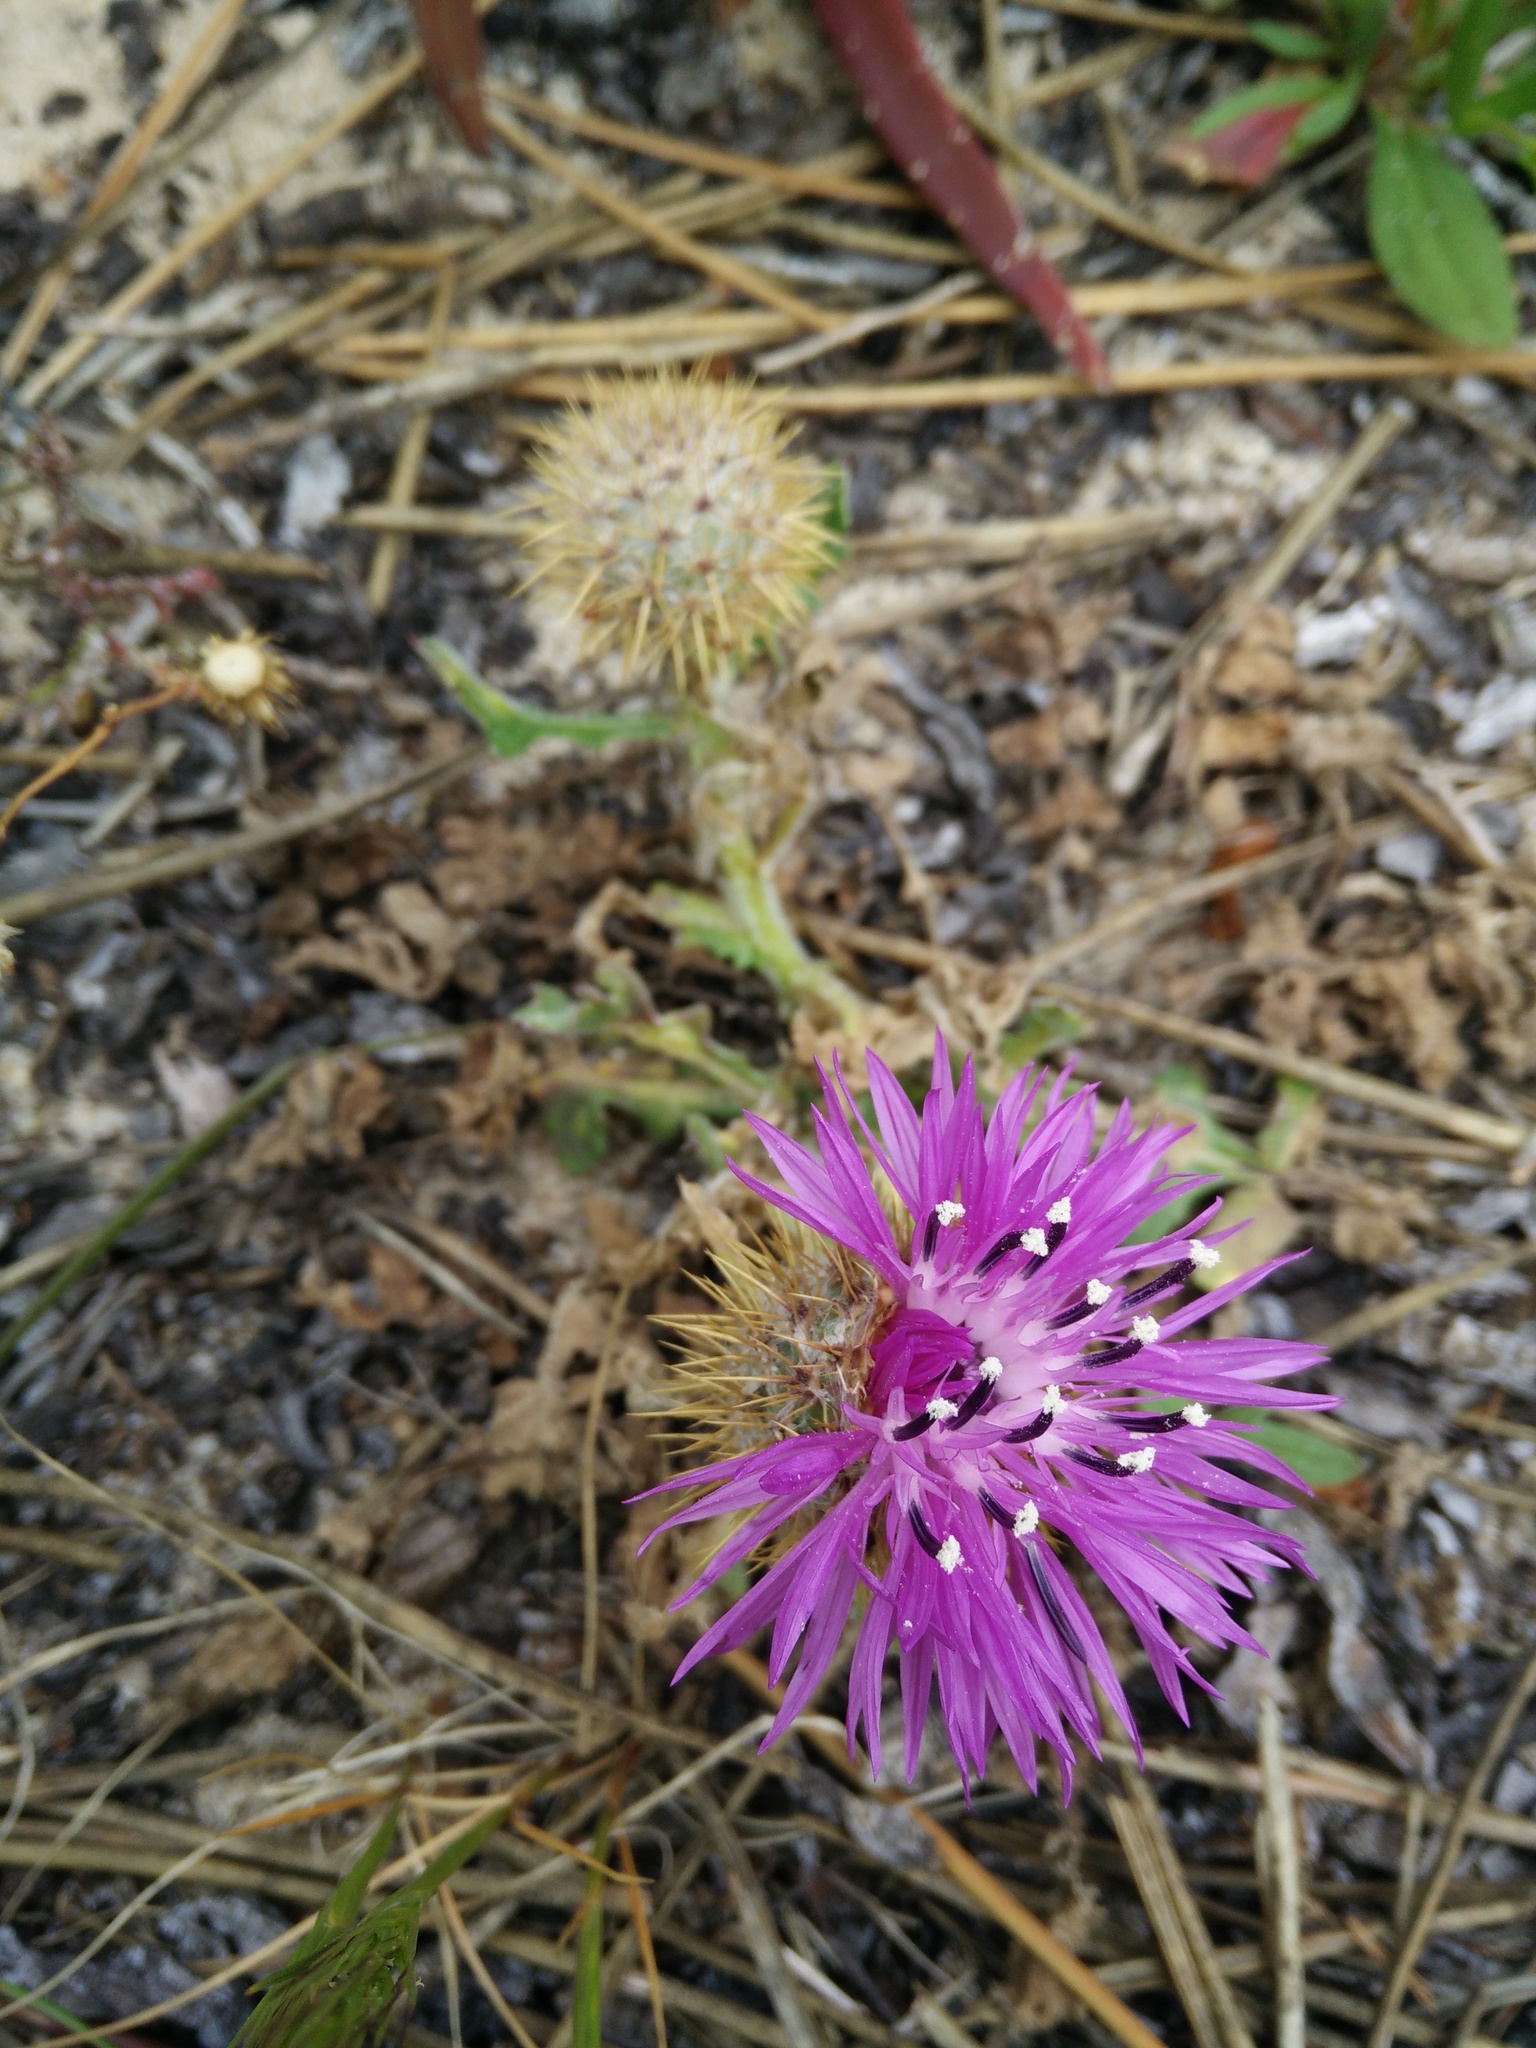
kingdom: Plantae
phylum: Tracheophyta
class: Magnoliopsida
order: Asterales
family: Asteraceae
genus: Centaurea
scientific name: Centaurea polyacantha
